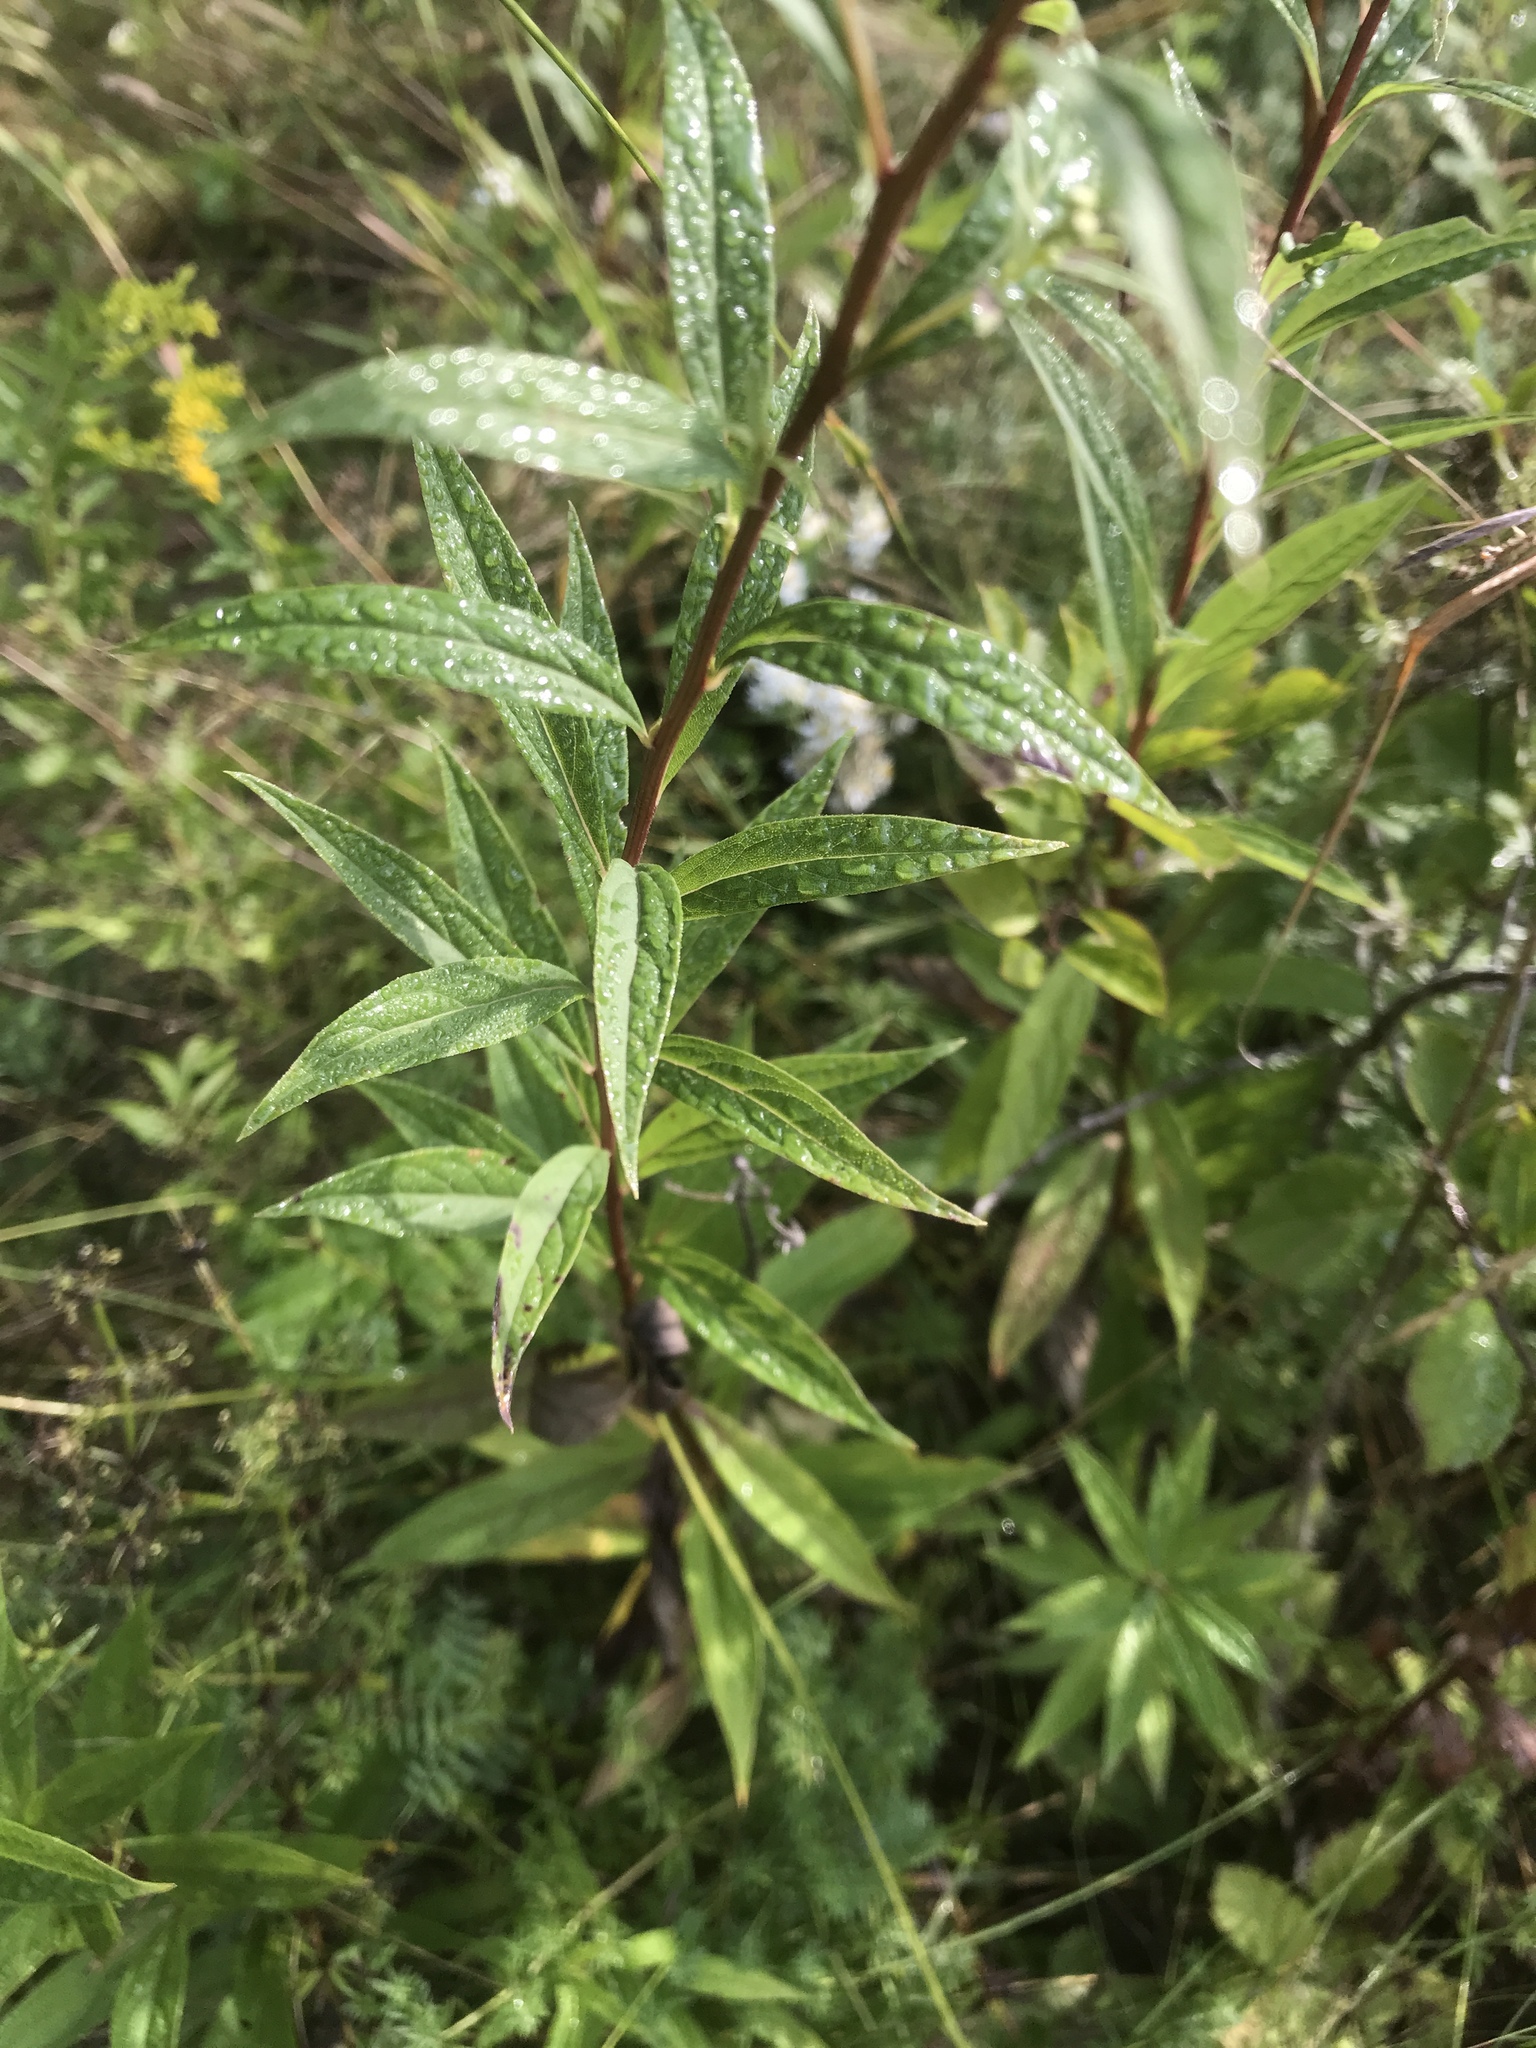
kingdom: Plantae
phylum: Tracheophyta
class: Magnoliopsida
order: Asterales
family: Asteraceae
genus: Doellingeria
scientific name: Doellingeria umbellata
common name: Flat-top white aster
